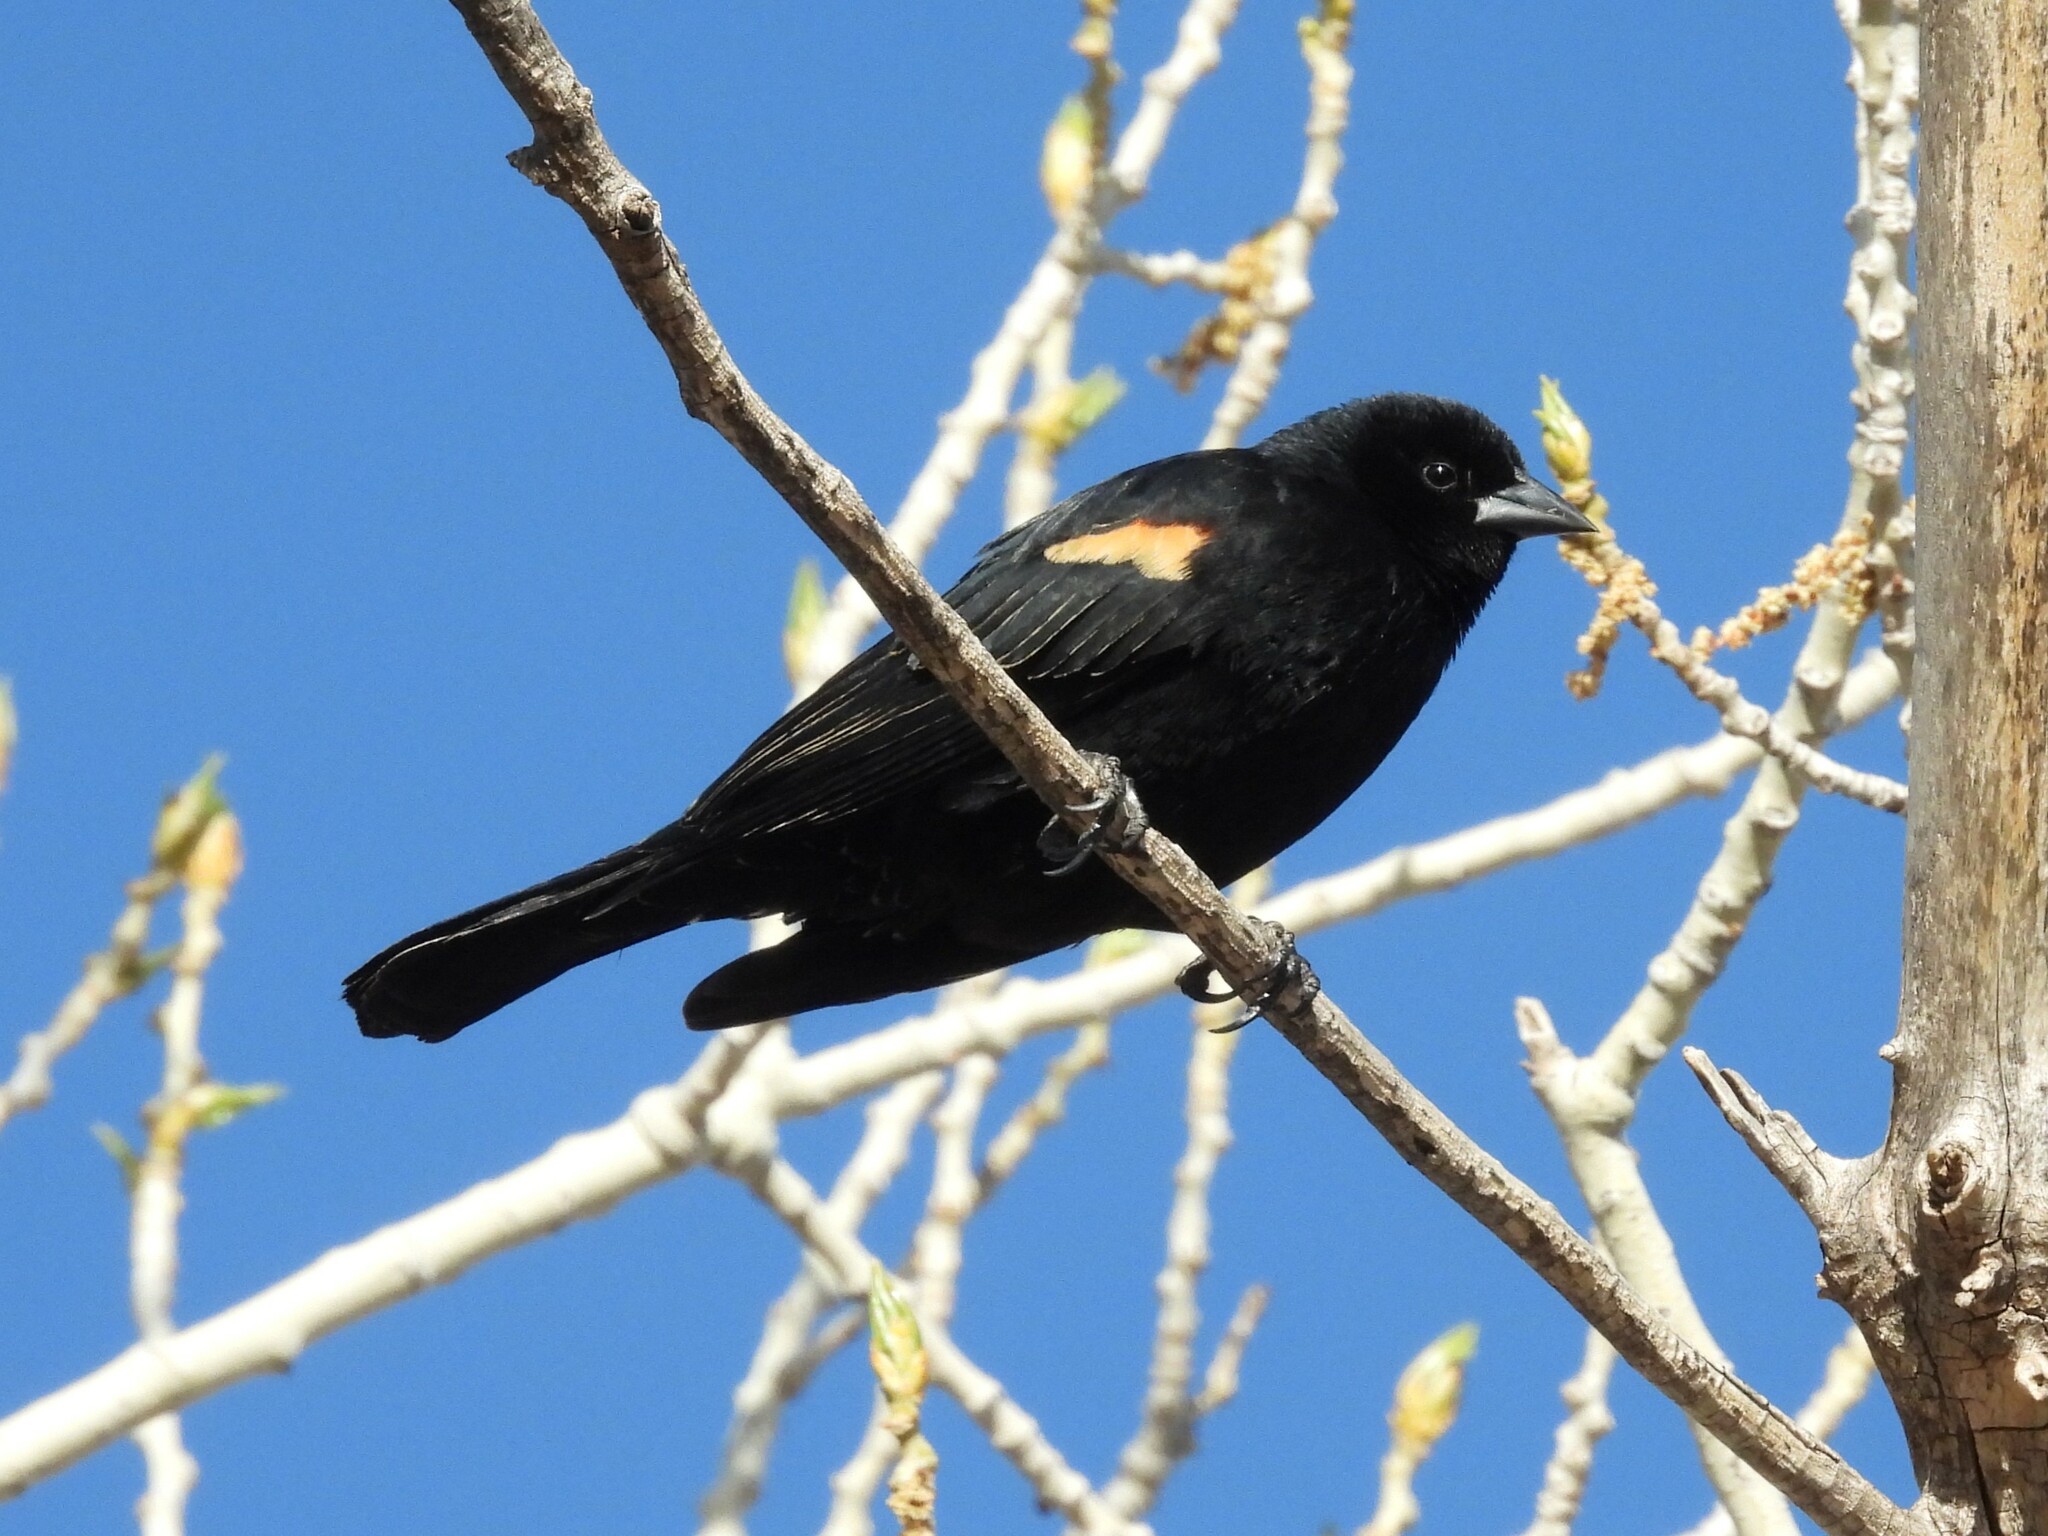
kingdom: Animalia
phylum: Chordata
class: Aves
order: Passeriformes
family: Icteridae
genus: Agelaius
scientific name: Agelaius phoeniceus
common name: Red-winged blackbird
